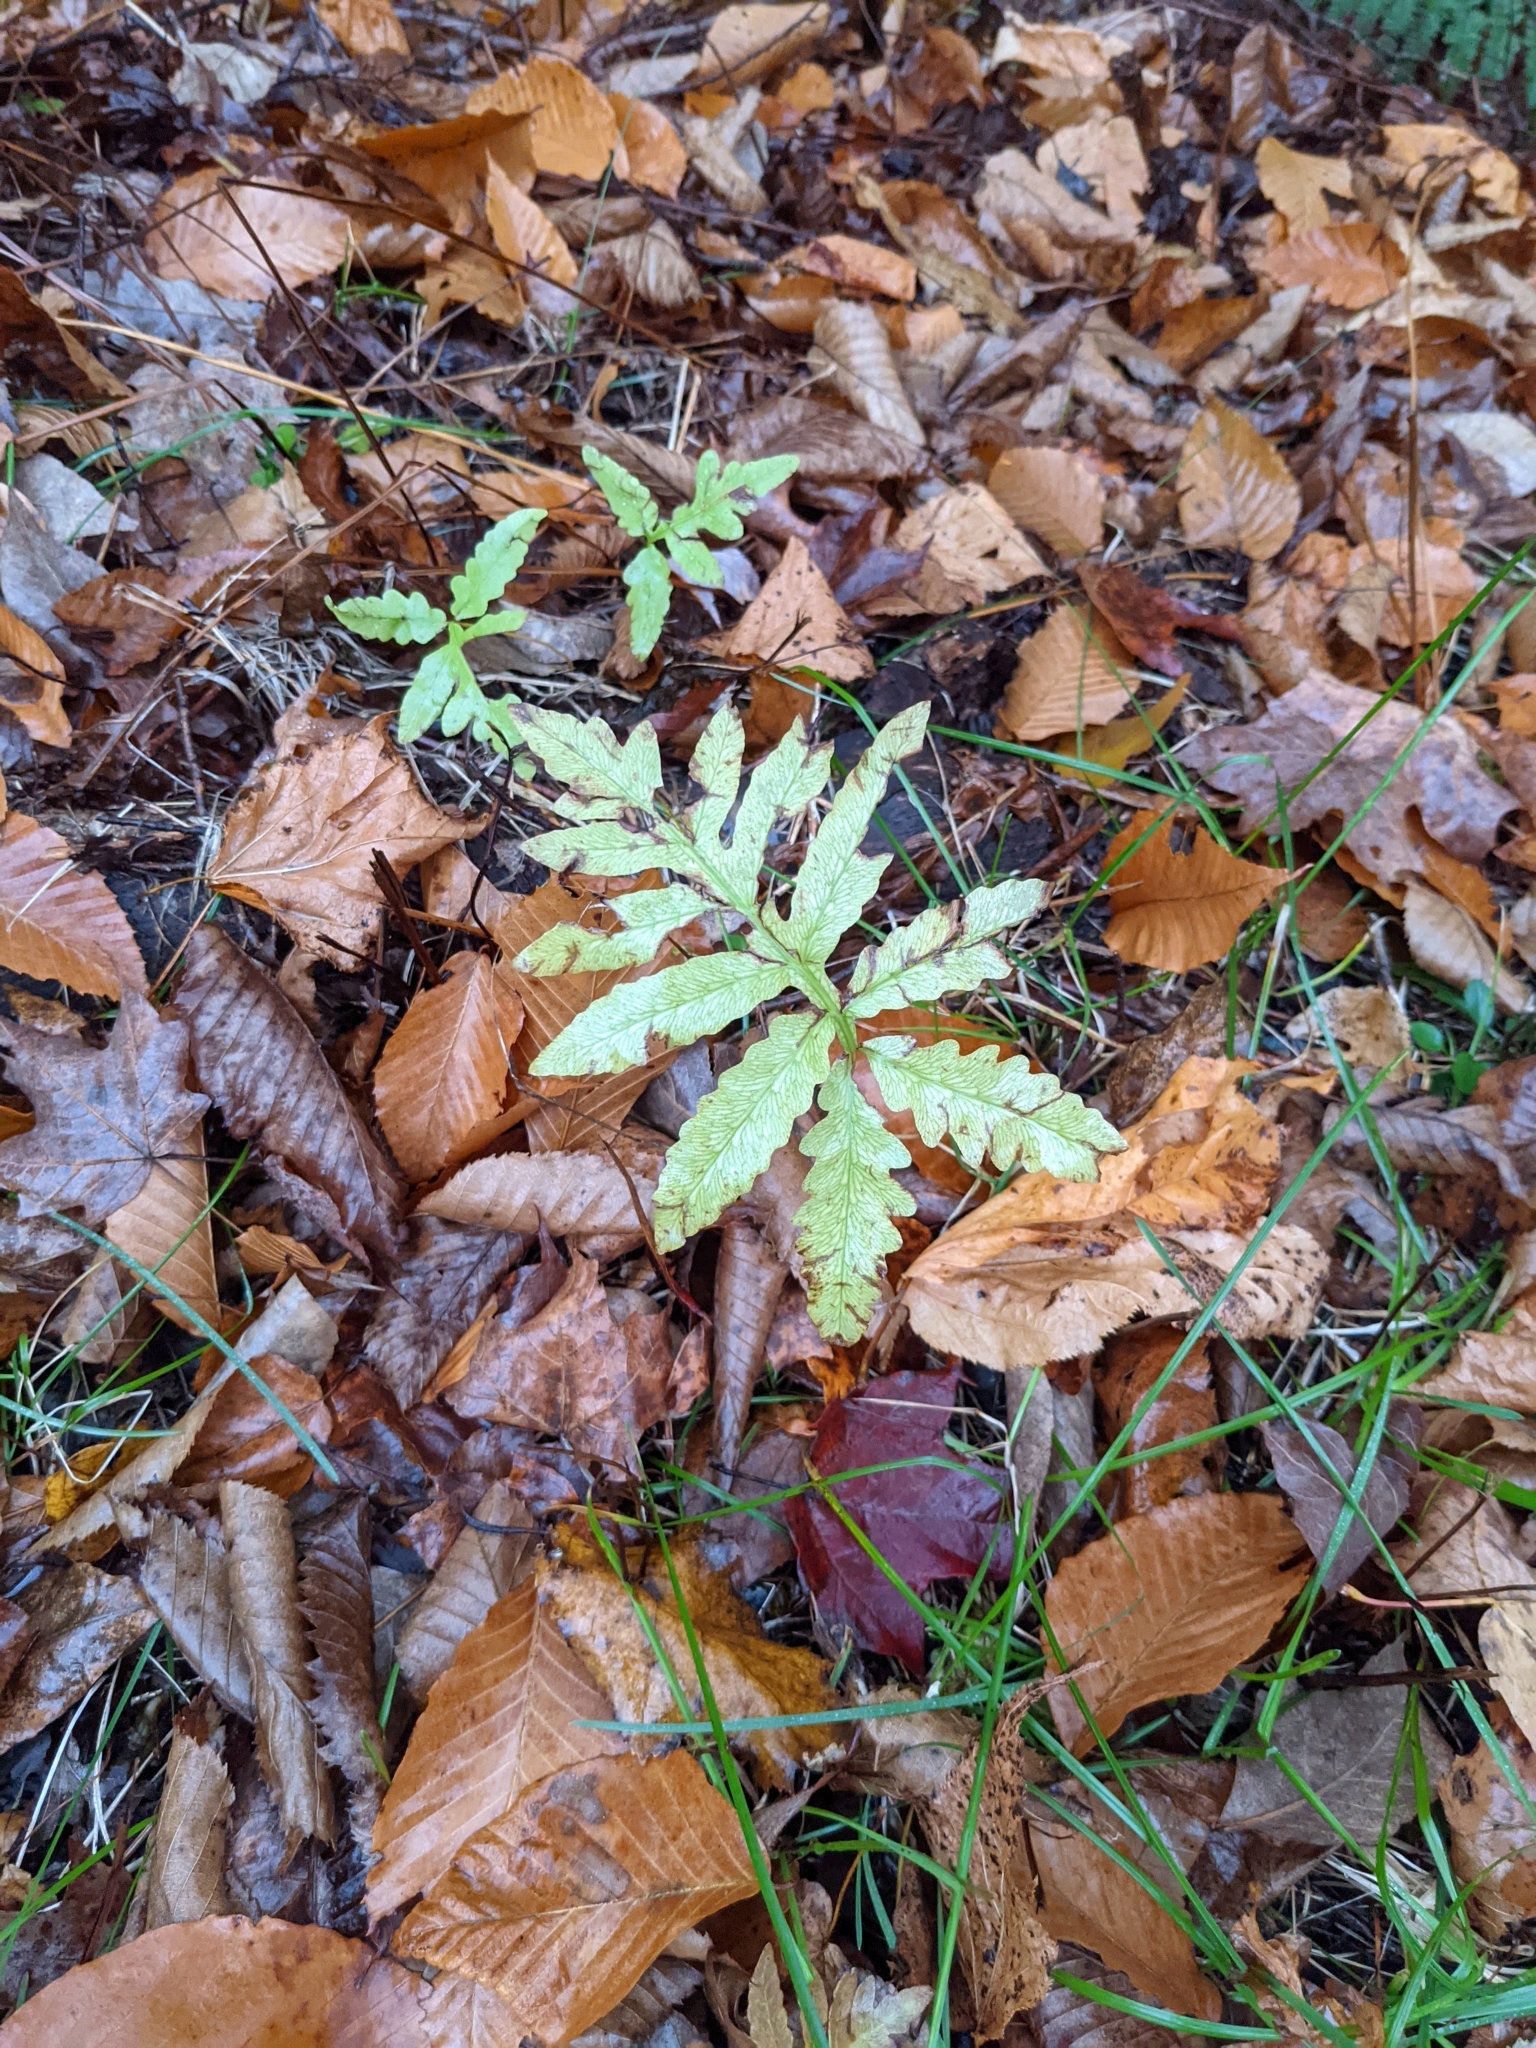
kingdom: Plantae
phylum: Tracheophyta
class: Polypodiopsida
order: Polypodiales
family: Onocleaceae
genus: Onoclea
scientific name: Onoclea sensibilis
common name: Sensitive fern
